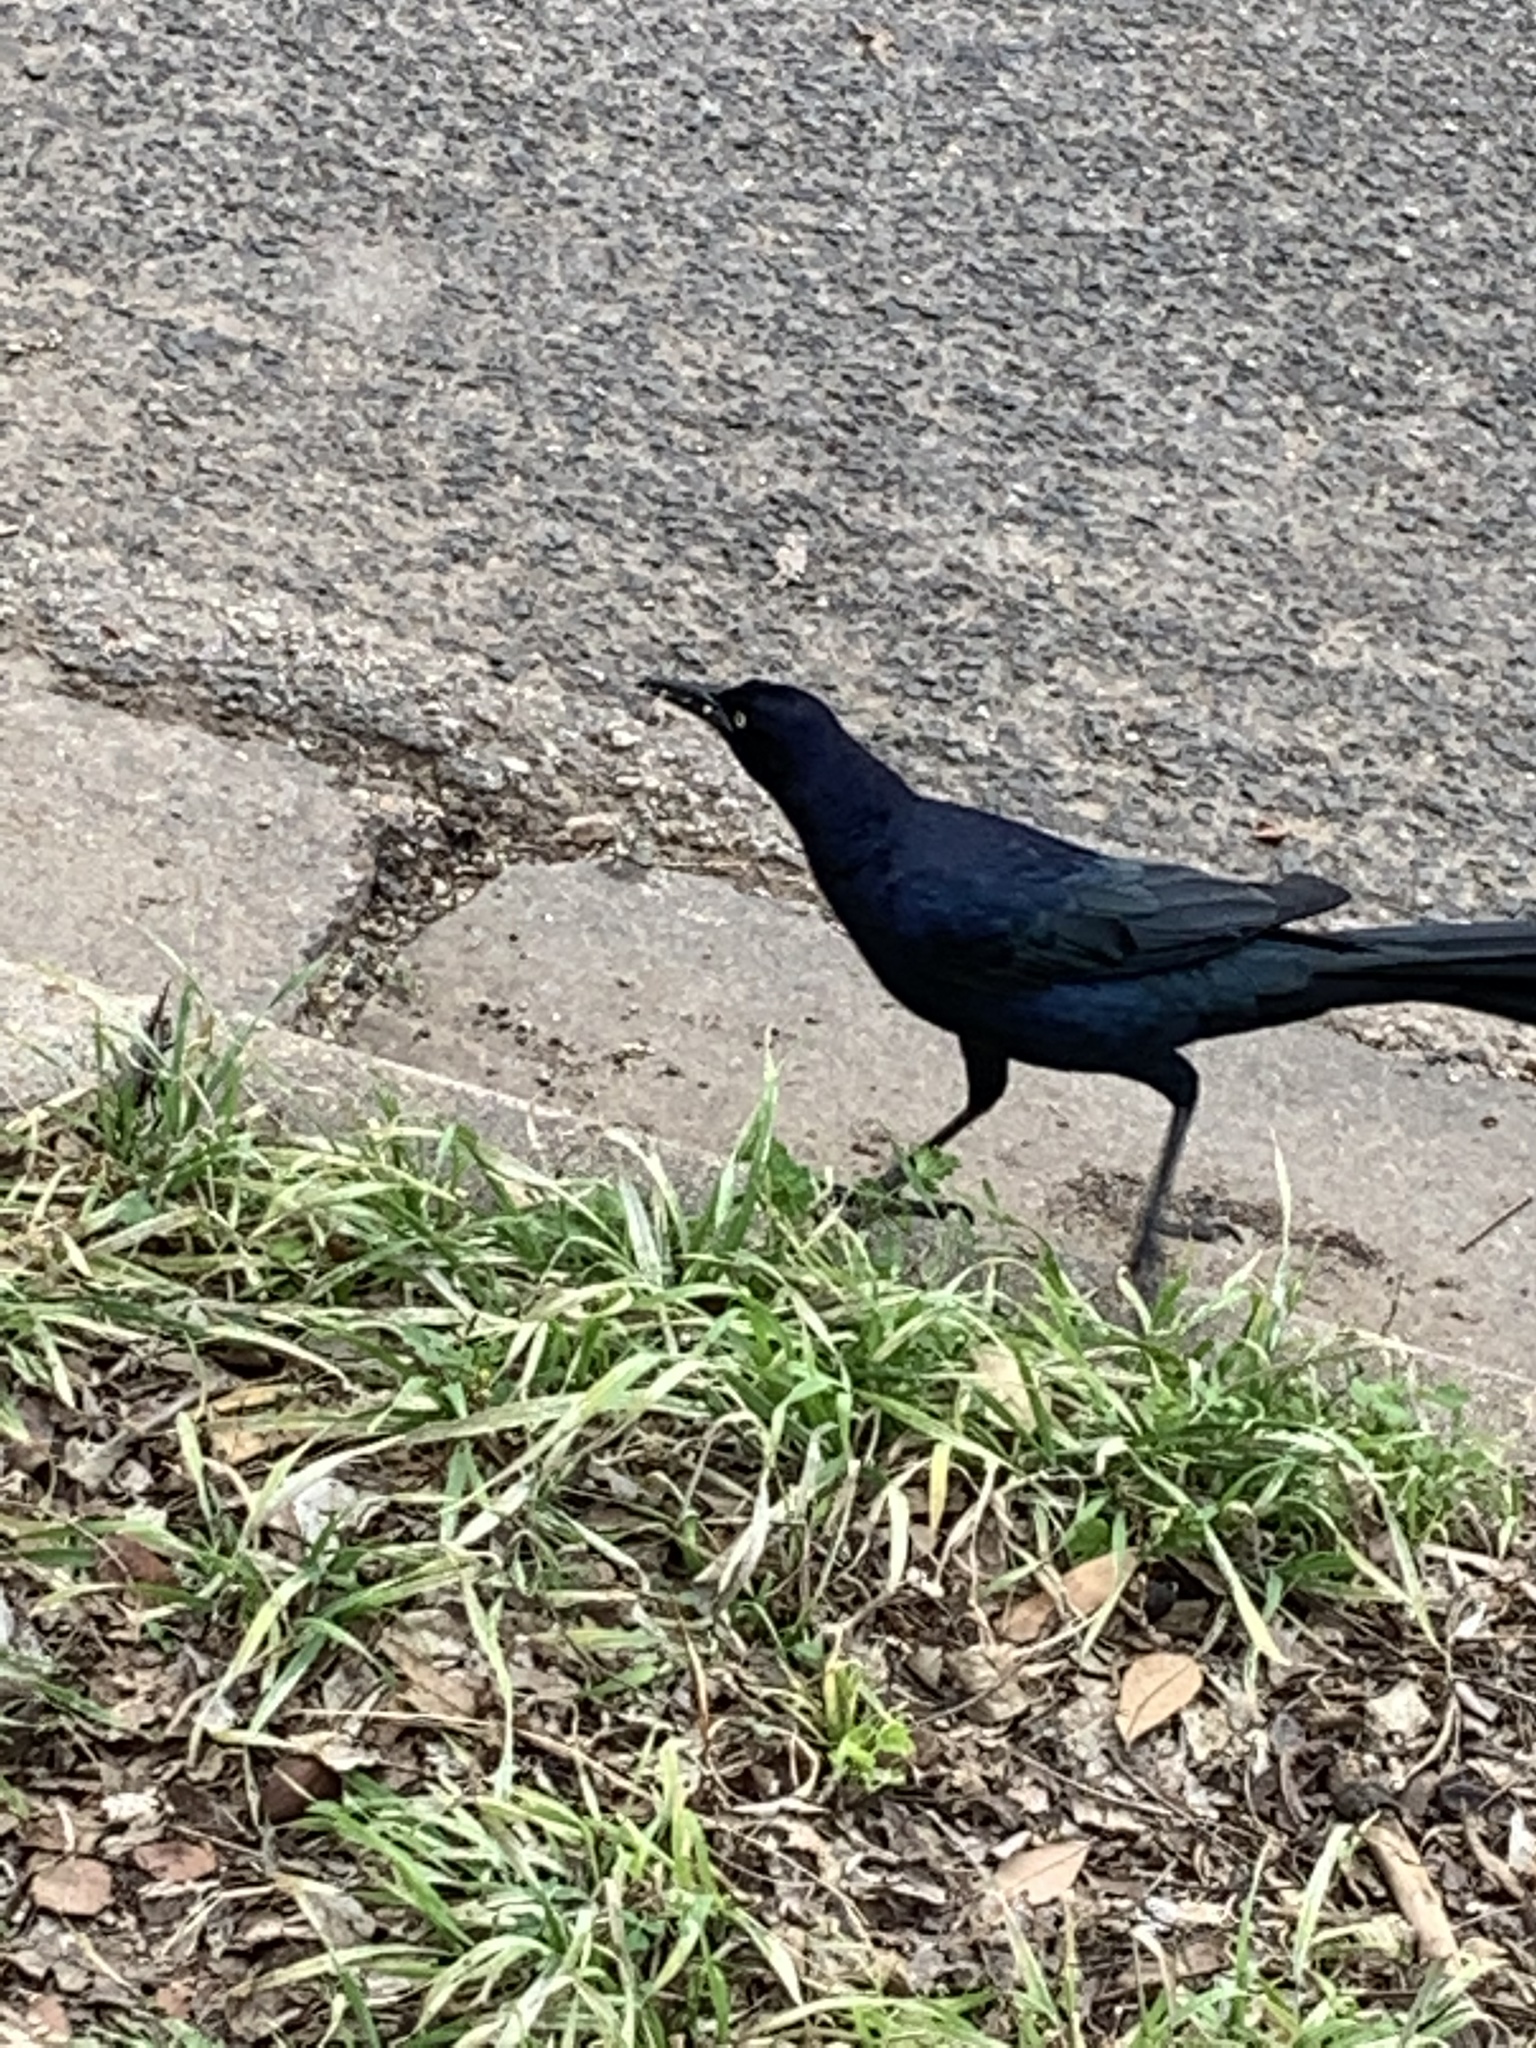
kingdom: Animalia
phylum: Chordata
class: Aves
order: Passeriformes
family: Icteridae
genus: Quiscalus
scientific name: Quiscalus mexicanus
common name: Great-tailed grackle
